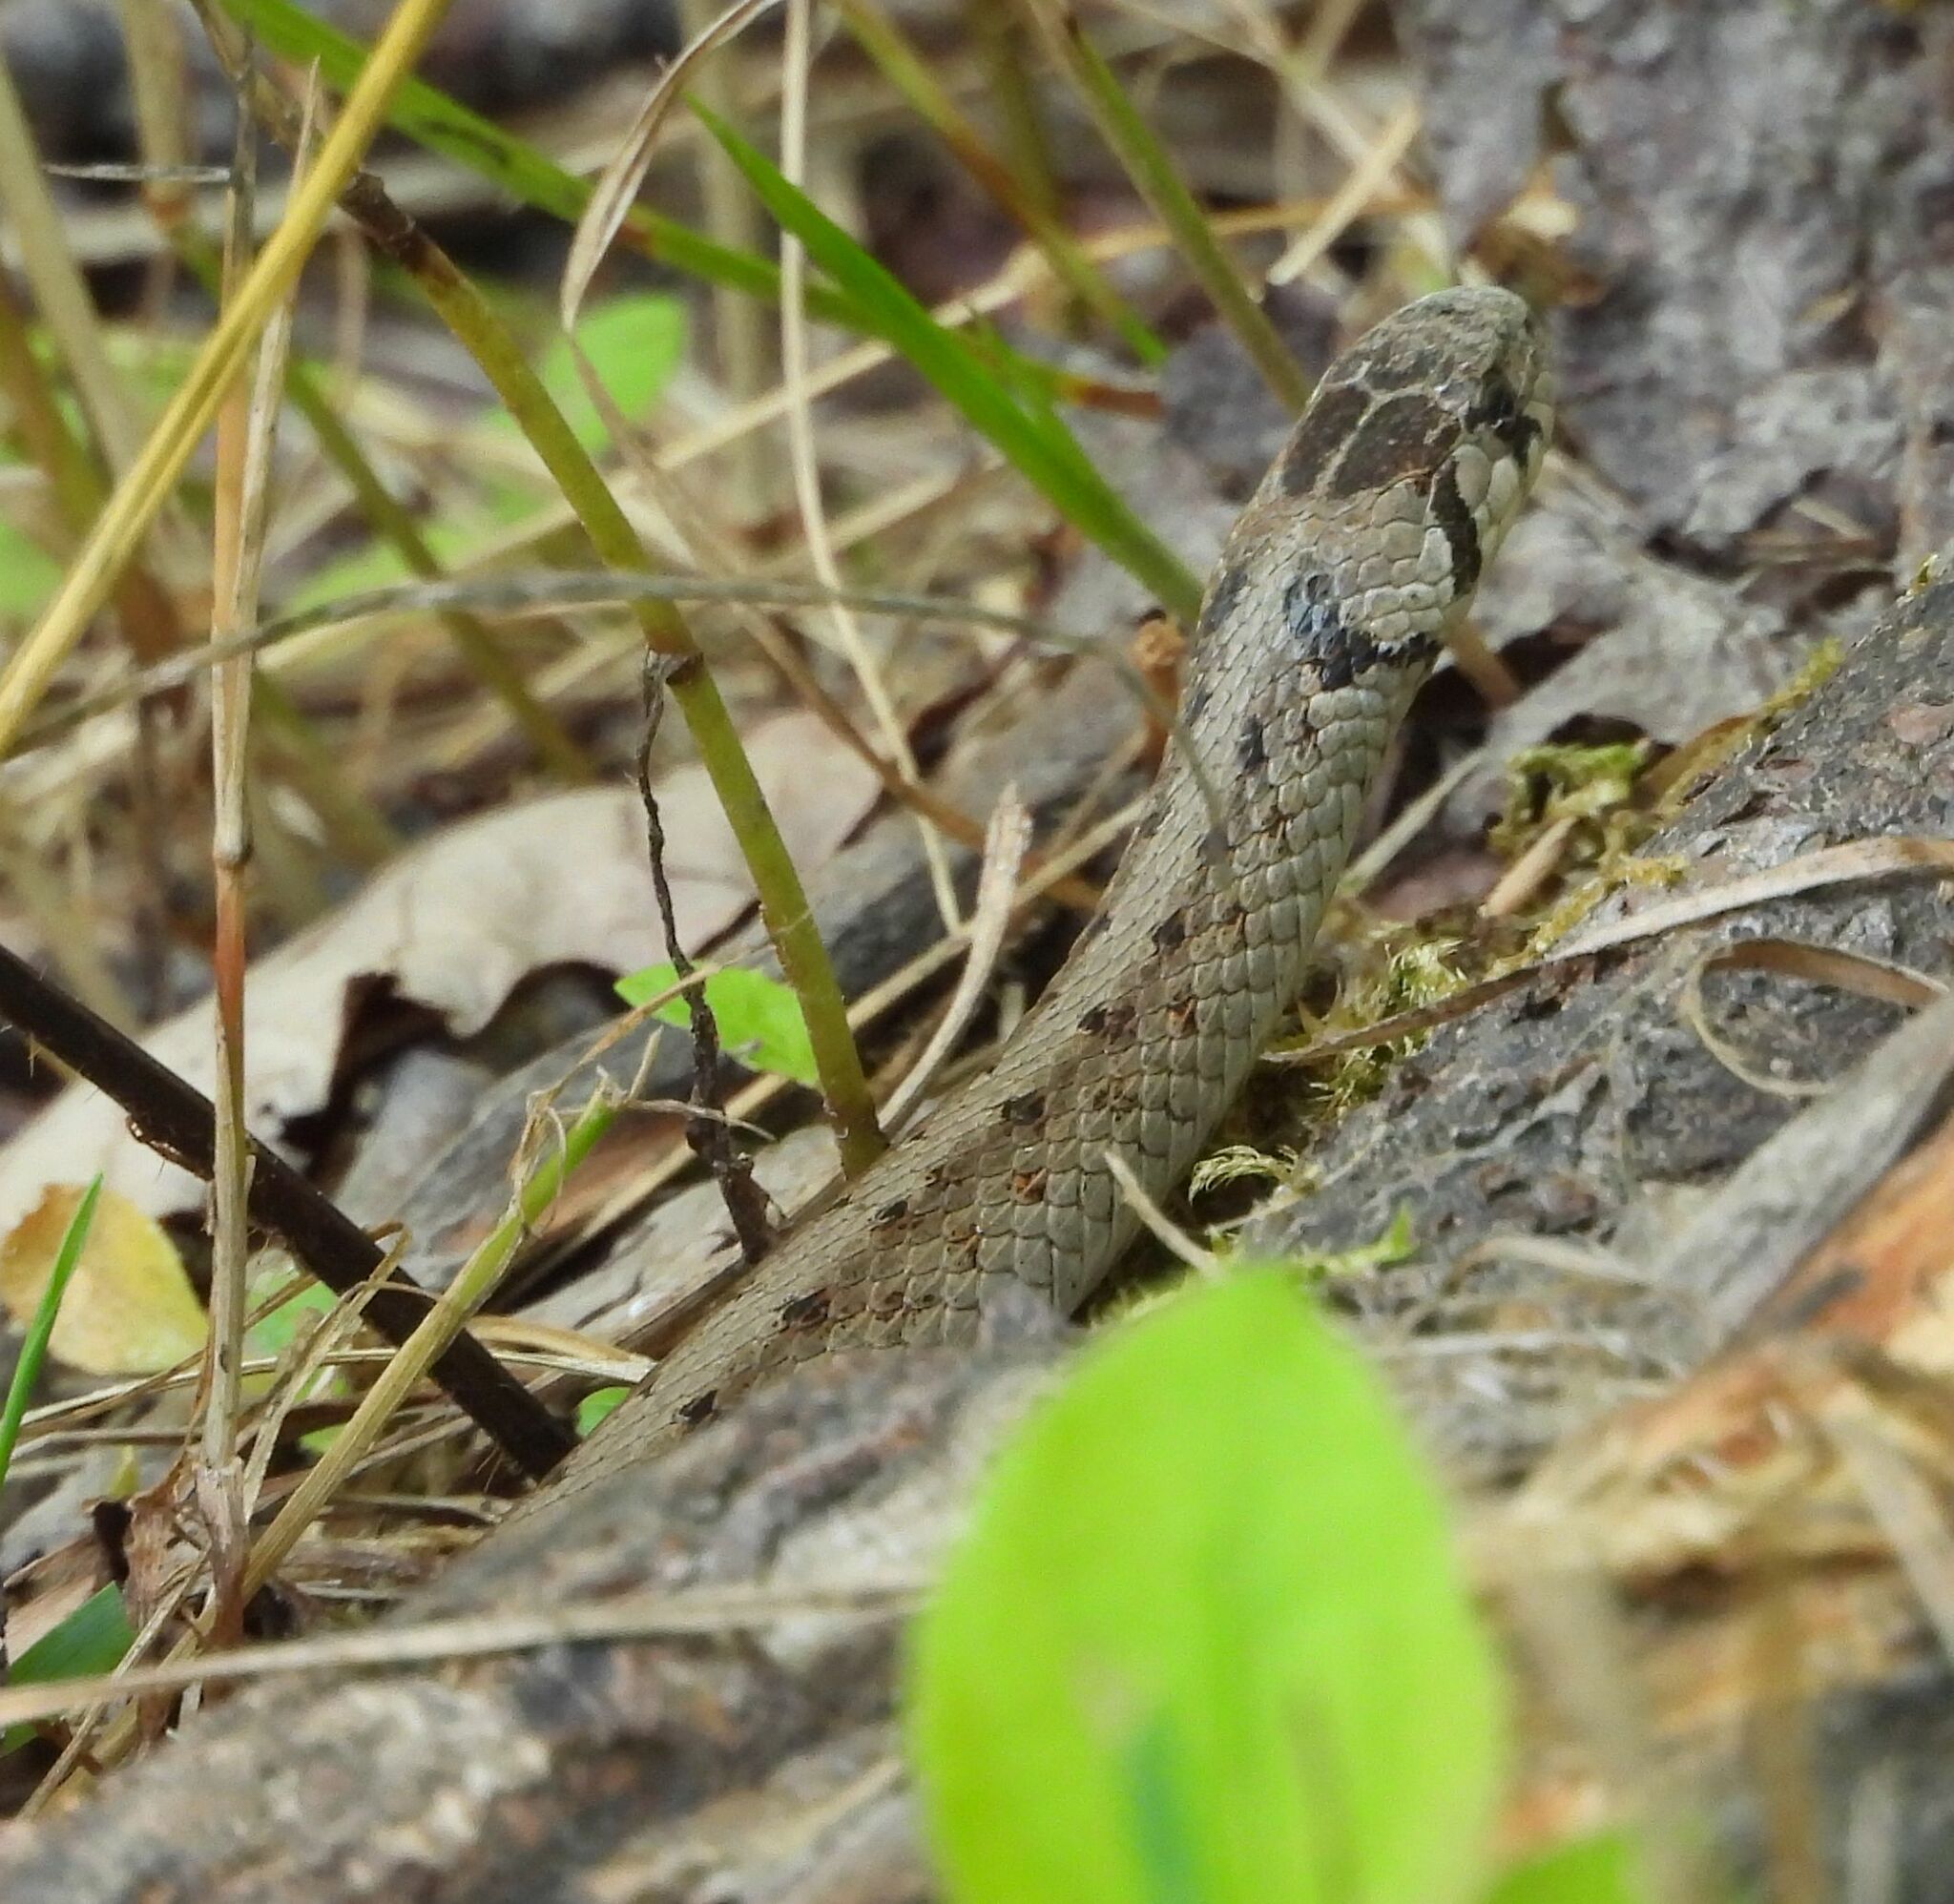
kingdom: Animalia
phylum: Chordata
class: Squamata
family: Colubridae
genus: Storeria
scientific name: Storeria dekayi
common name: (dekay’s) brown snake
